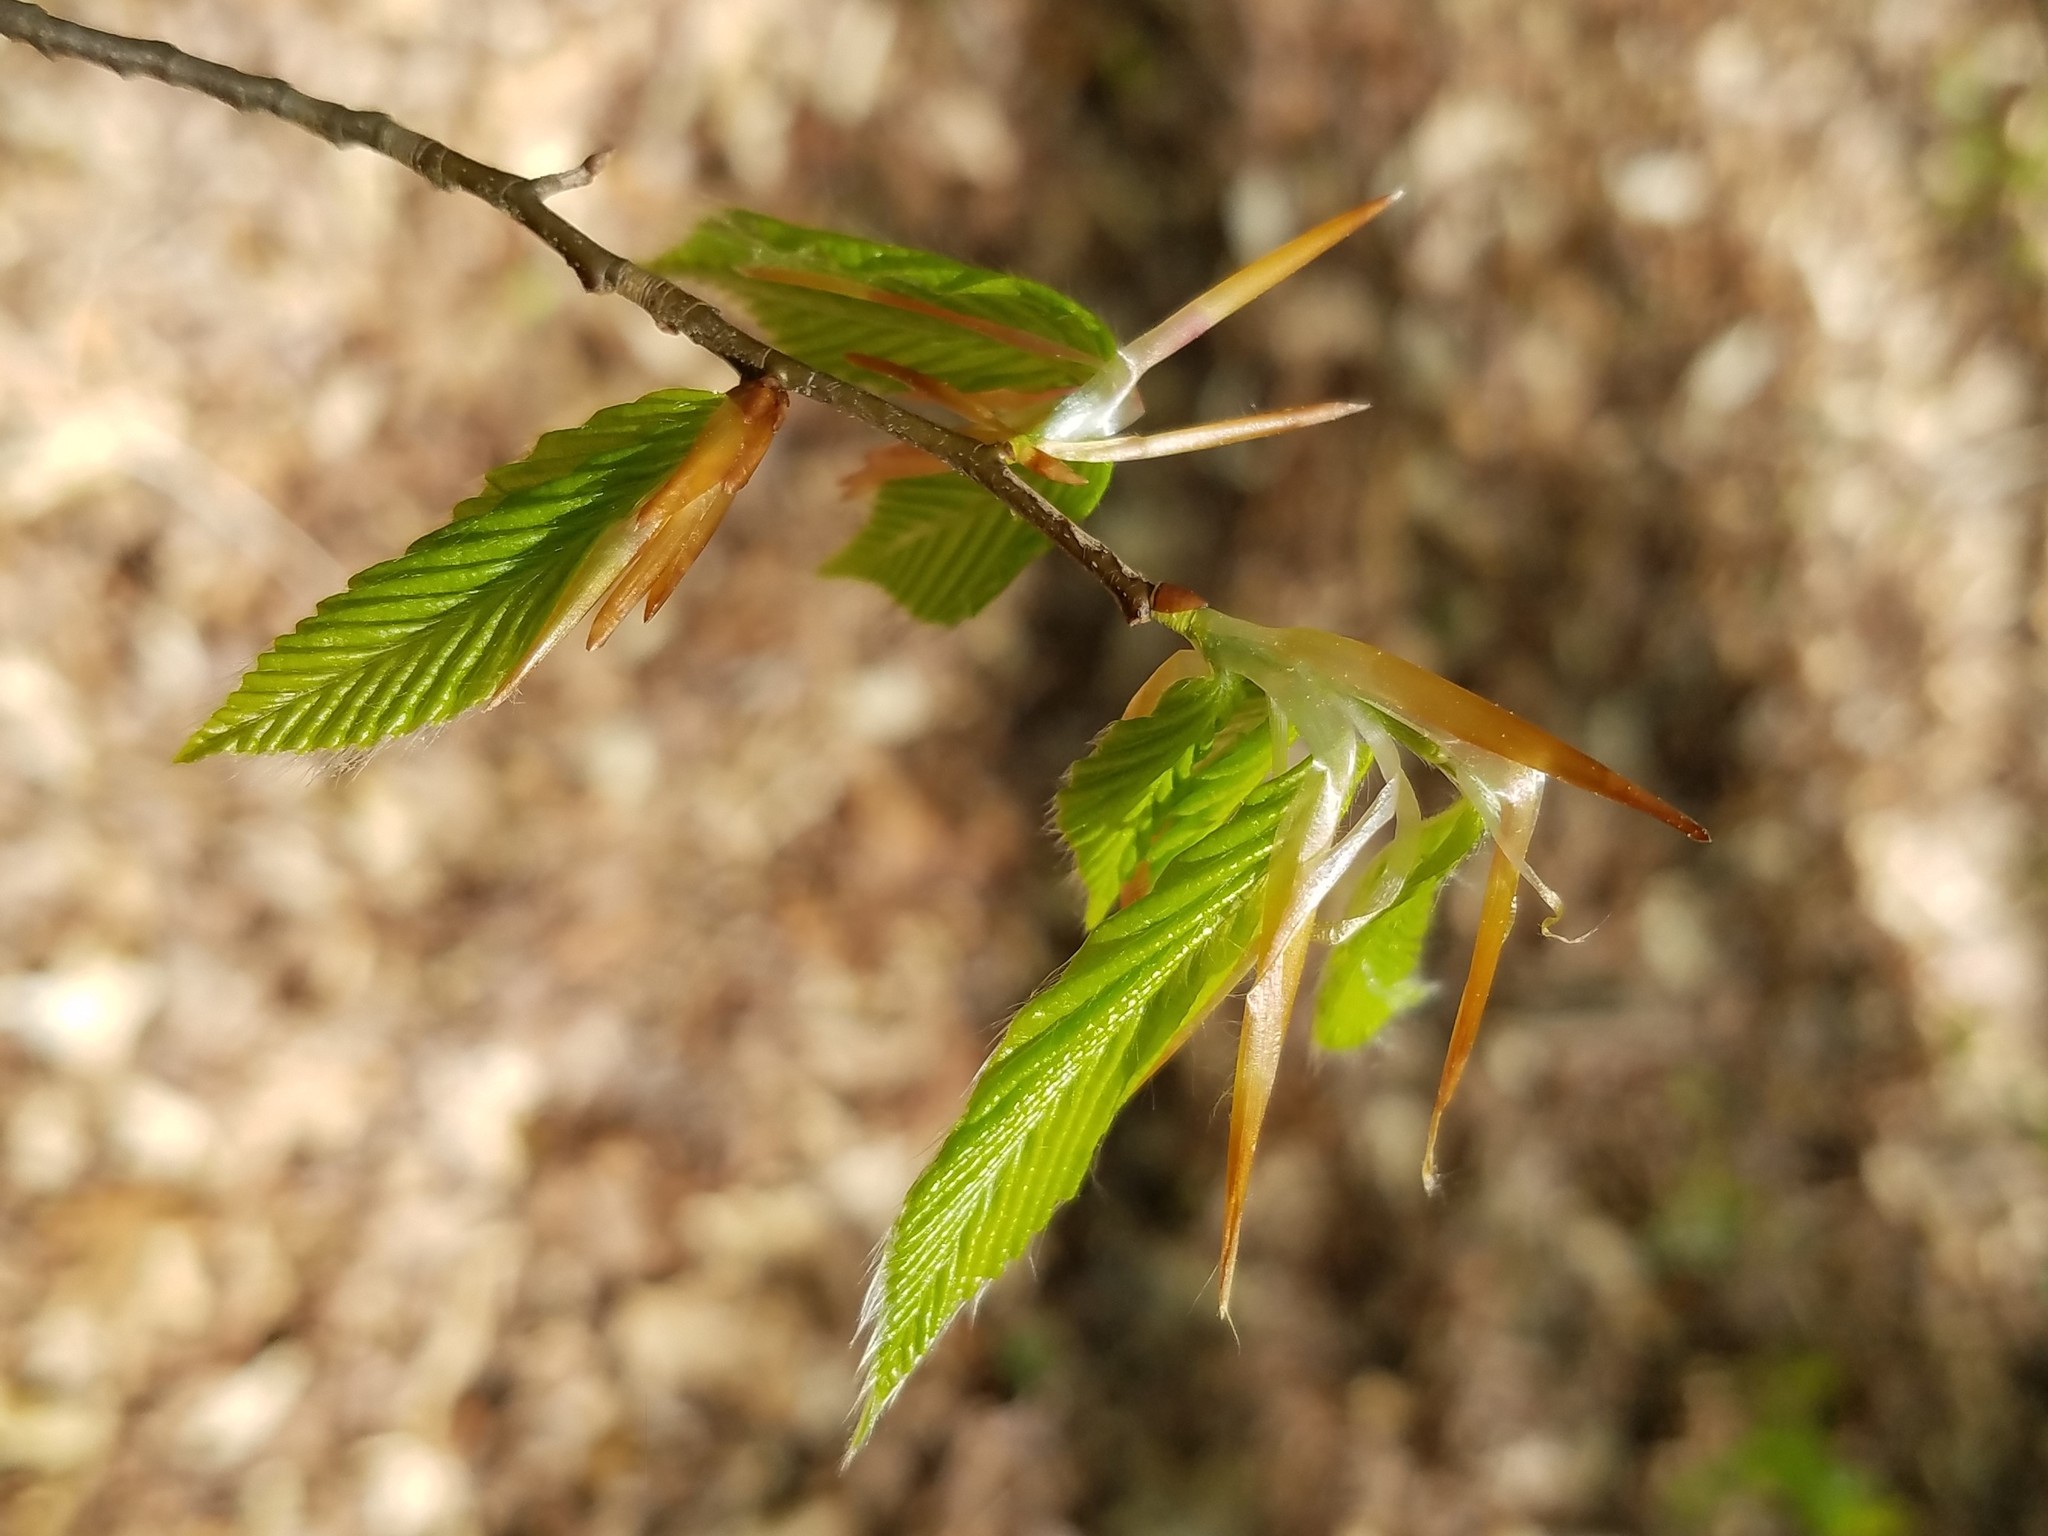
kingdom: Plantae
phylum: Tracheophyta
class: Magnoliopsida
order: Fagales
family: Fagaceae
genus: Fagus
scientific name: Fagus grandifolia
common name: American beech
